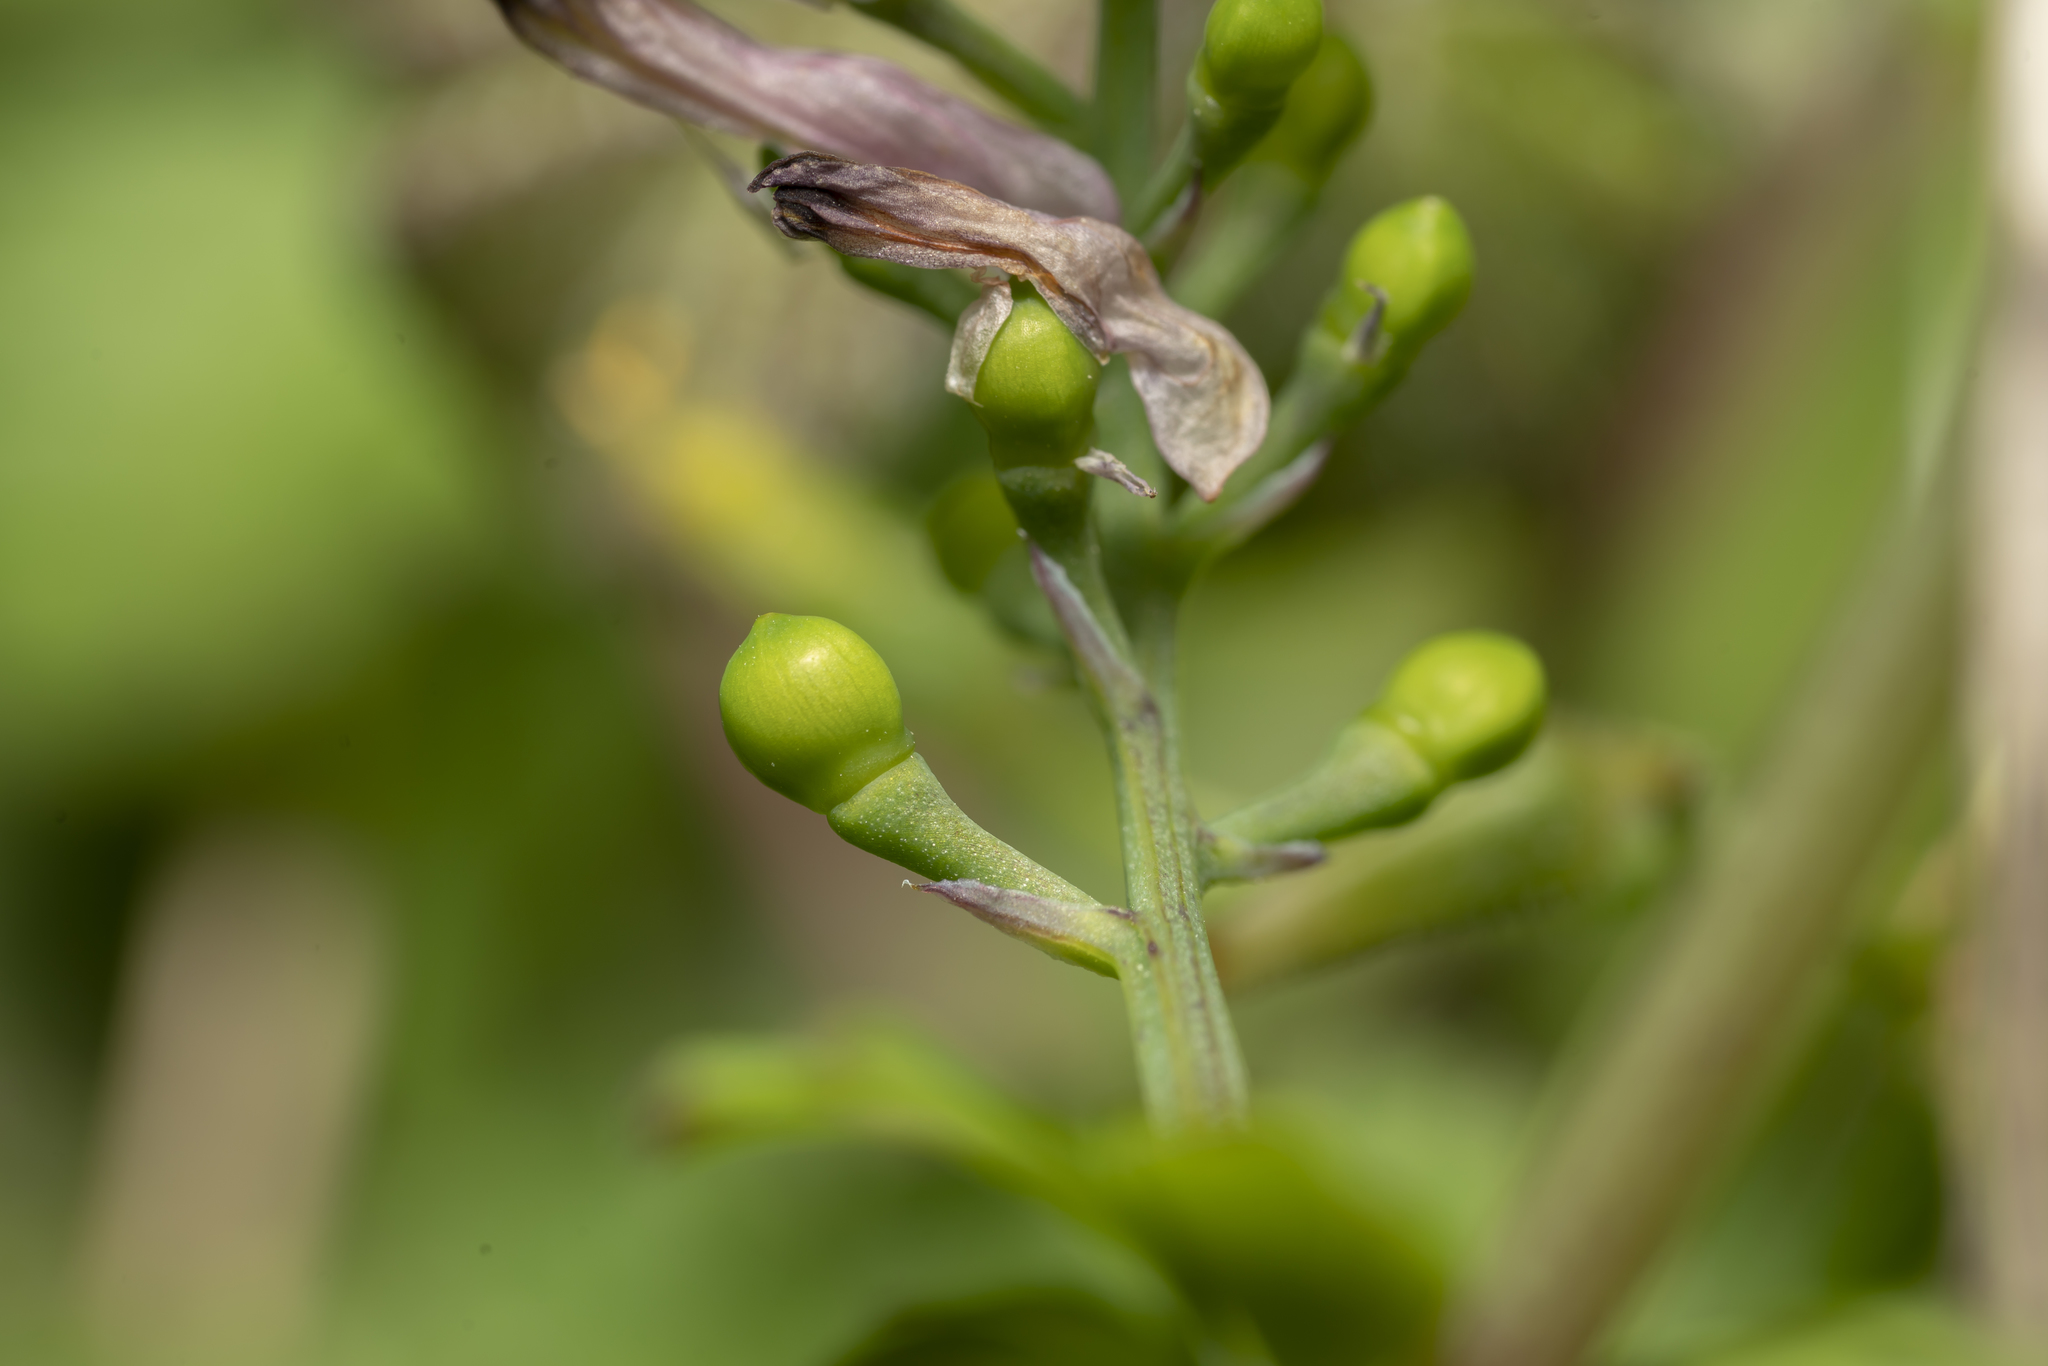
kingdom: Plantae
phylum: Tracheophyta
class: Magnoliopsida
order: Ranunculales
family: Papaveraceae
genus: Fumaria
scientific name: Fumaria judaica
